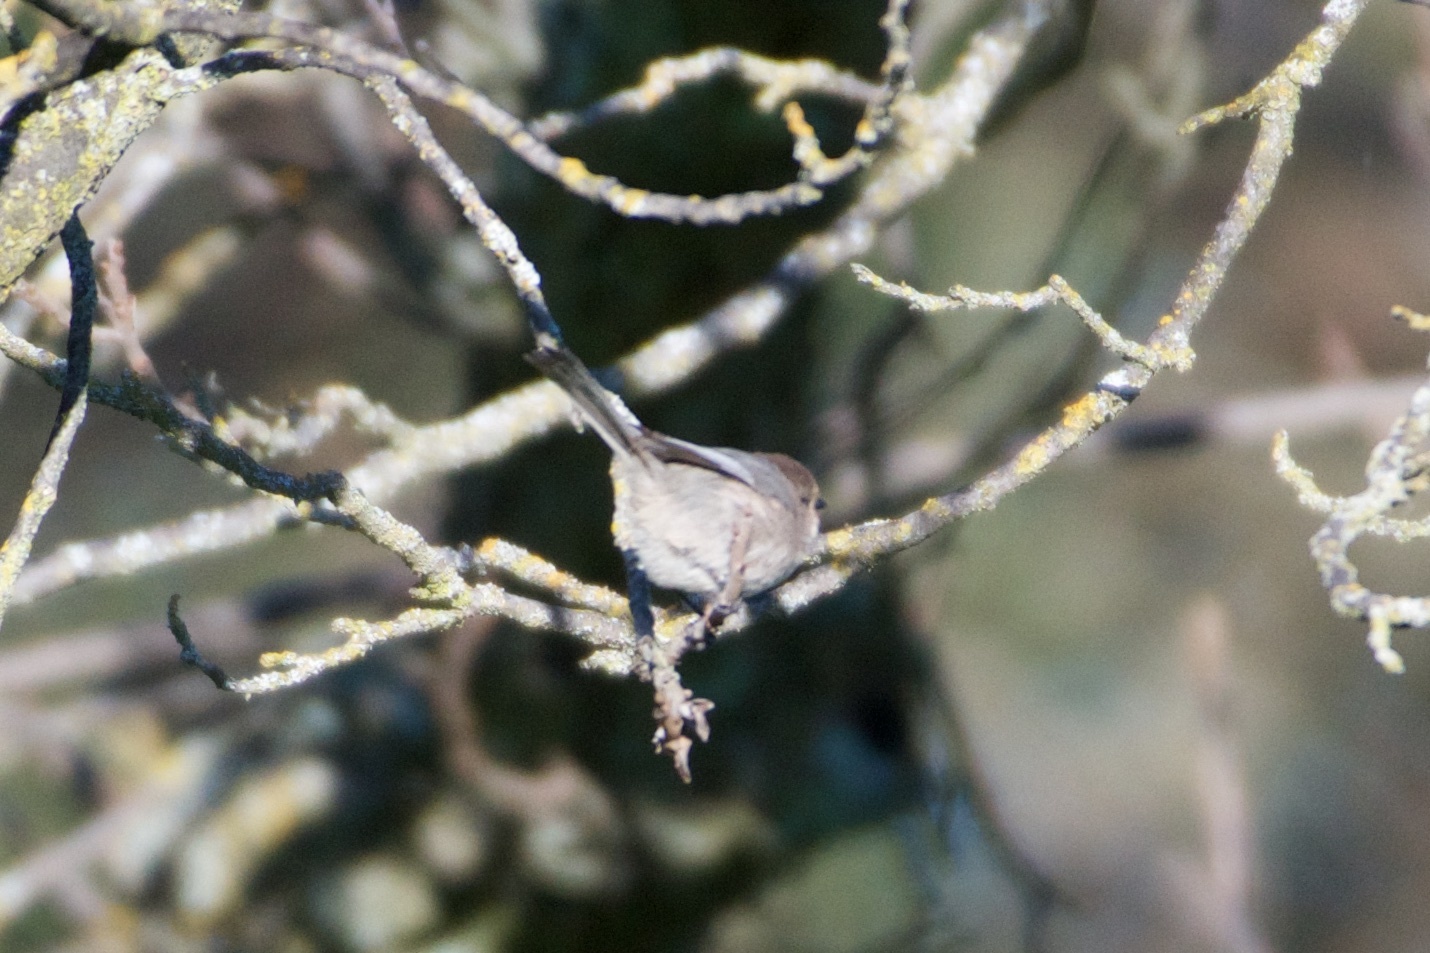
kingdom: Animalia
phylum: Chordata
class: Aves
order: Passeriformes
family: Aegithalidae
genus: Psaltriparus
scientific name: Psaltriparus minimus
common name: American bushtit
